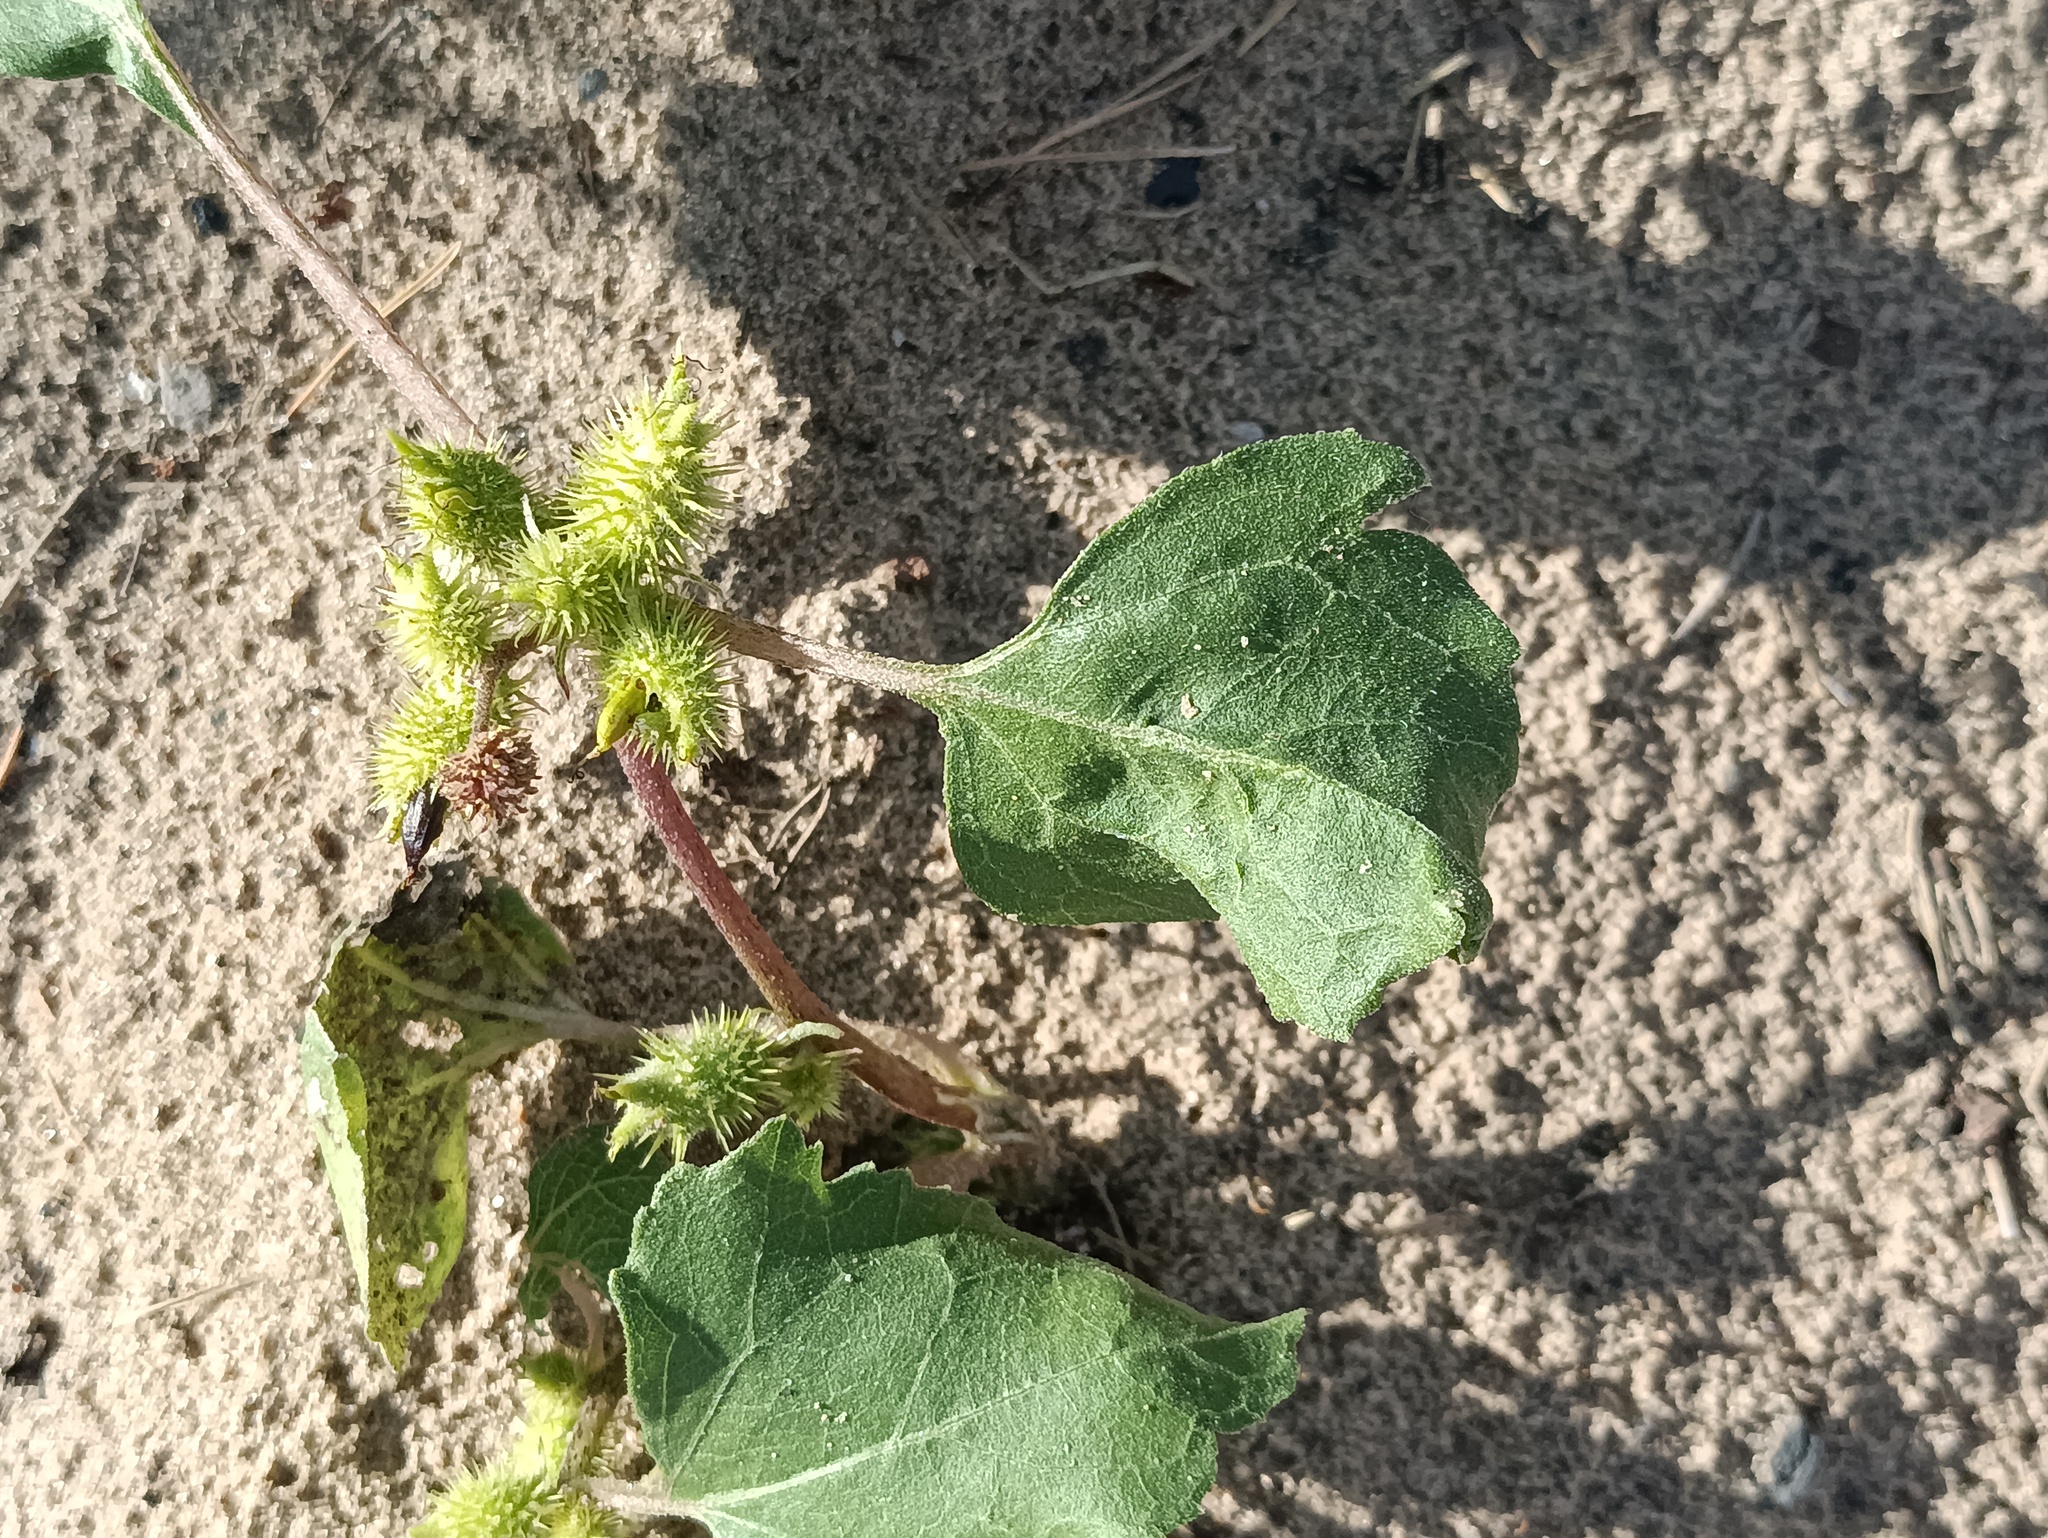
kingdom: Plantae
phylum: Tracheophyta
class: Magnoliopsida
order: Asterales
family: Asteraceae
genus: Xanthium
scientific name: Xanthium orientale
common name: Californian burr
